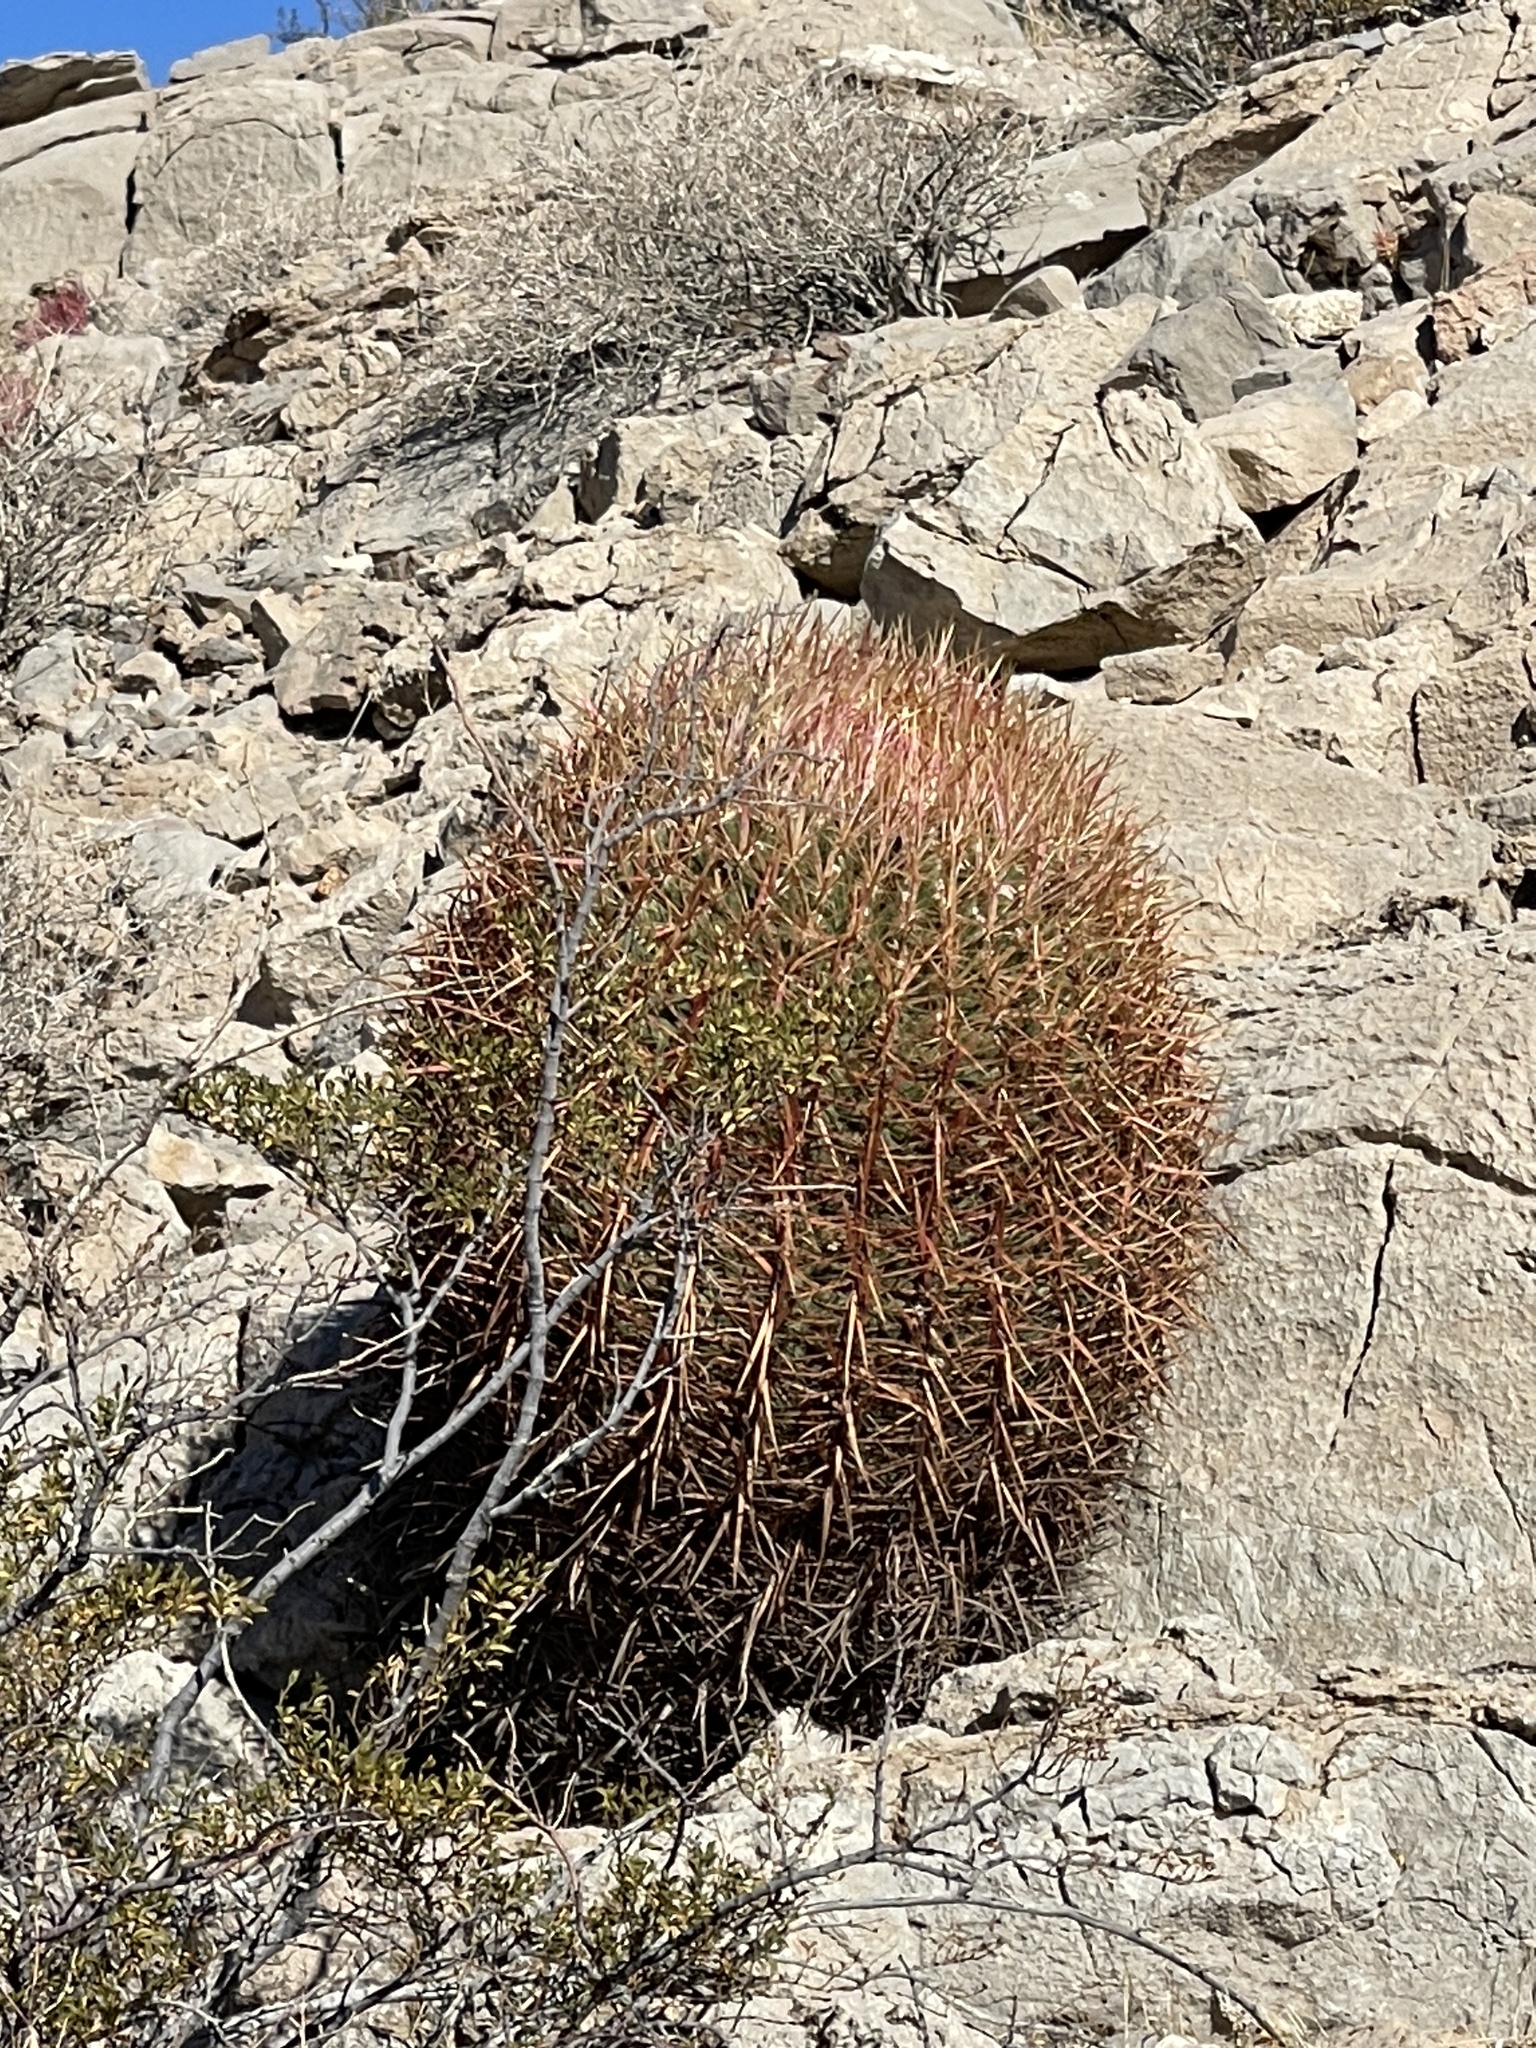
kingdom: Plantae
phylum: Tracheophyta
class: Magnoliopsida
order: Caryophyllales
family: Cactaceae
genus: Ferocactus
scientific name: Ferocactus cylindraceus
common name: California barrel cactus
